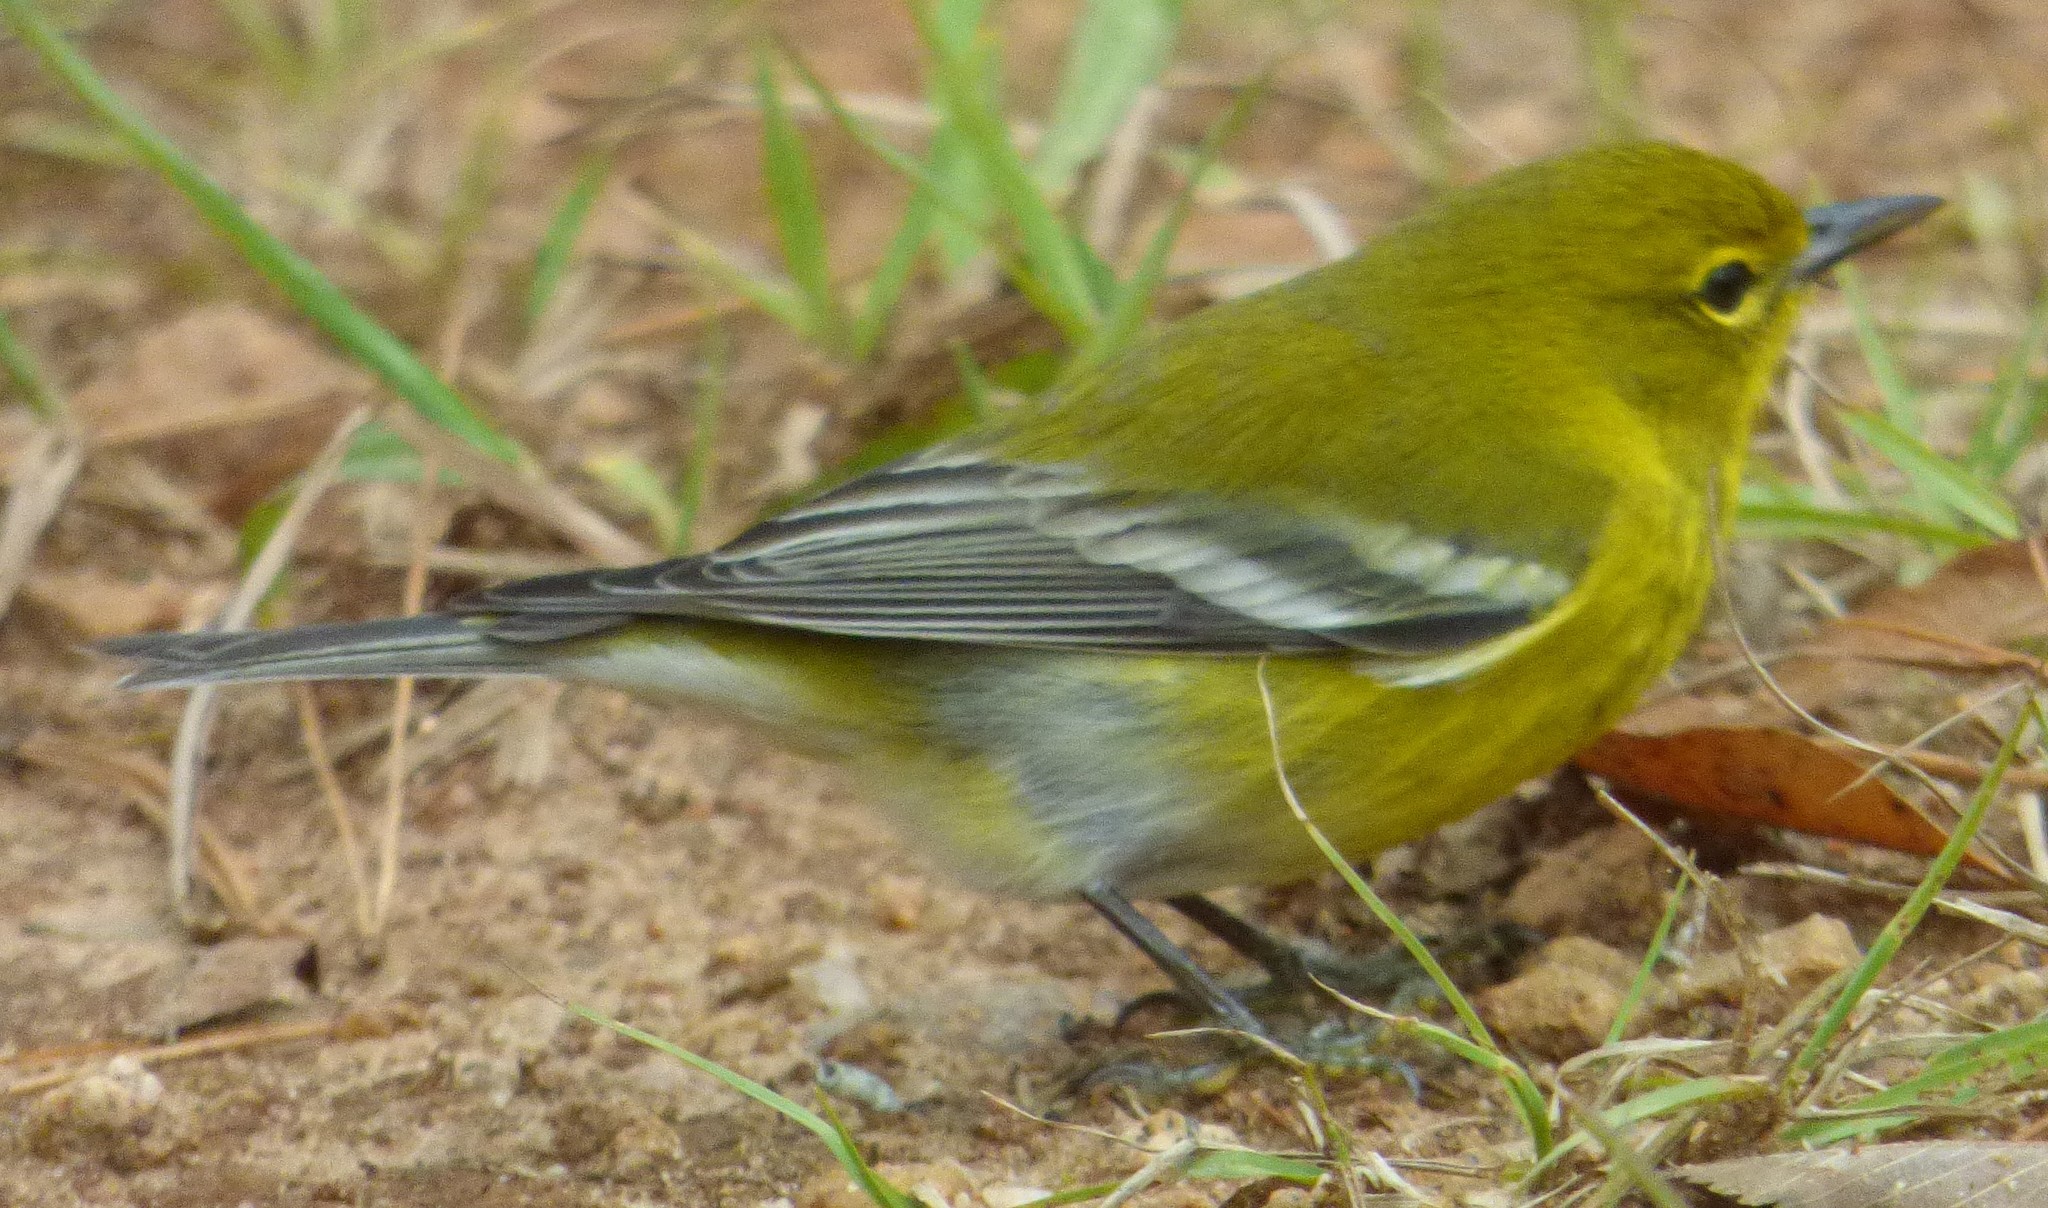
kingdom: Animalia
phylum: Chordata
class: Aves
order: Passeriformes
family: Parulidae
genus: Setophaga
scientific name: Setophaga pinus
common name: Pine warbler
